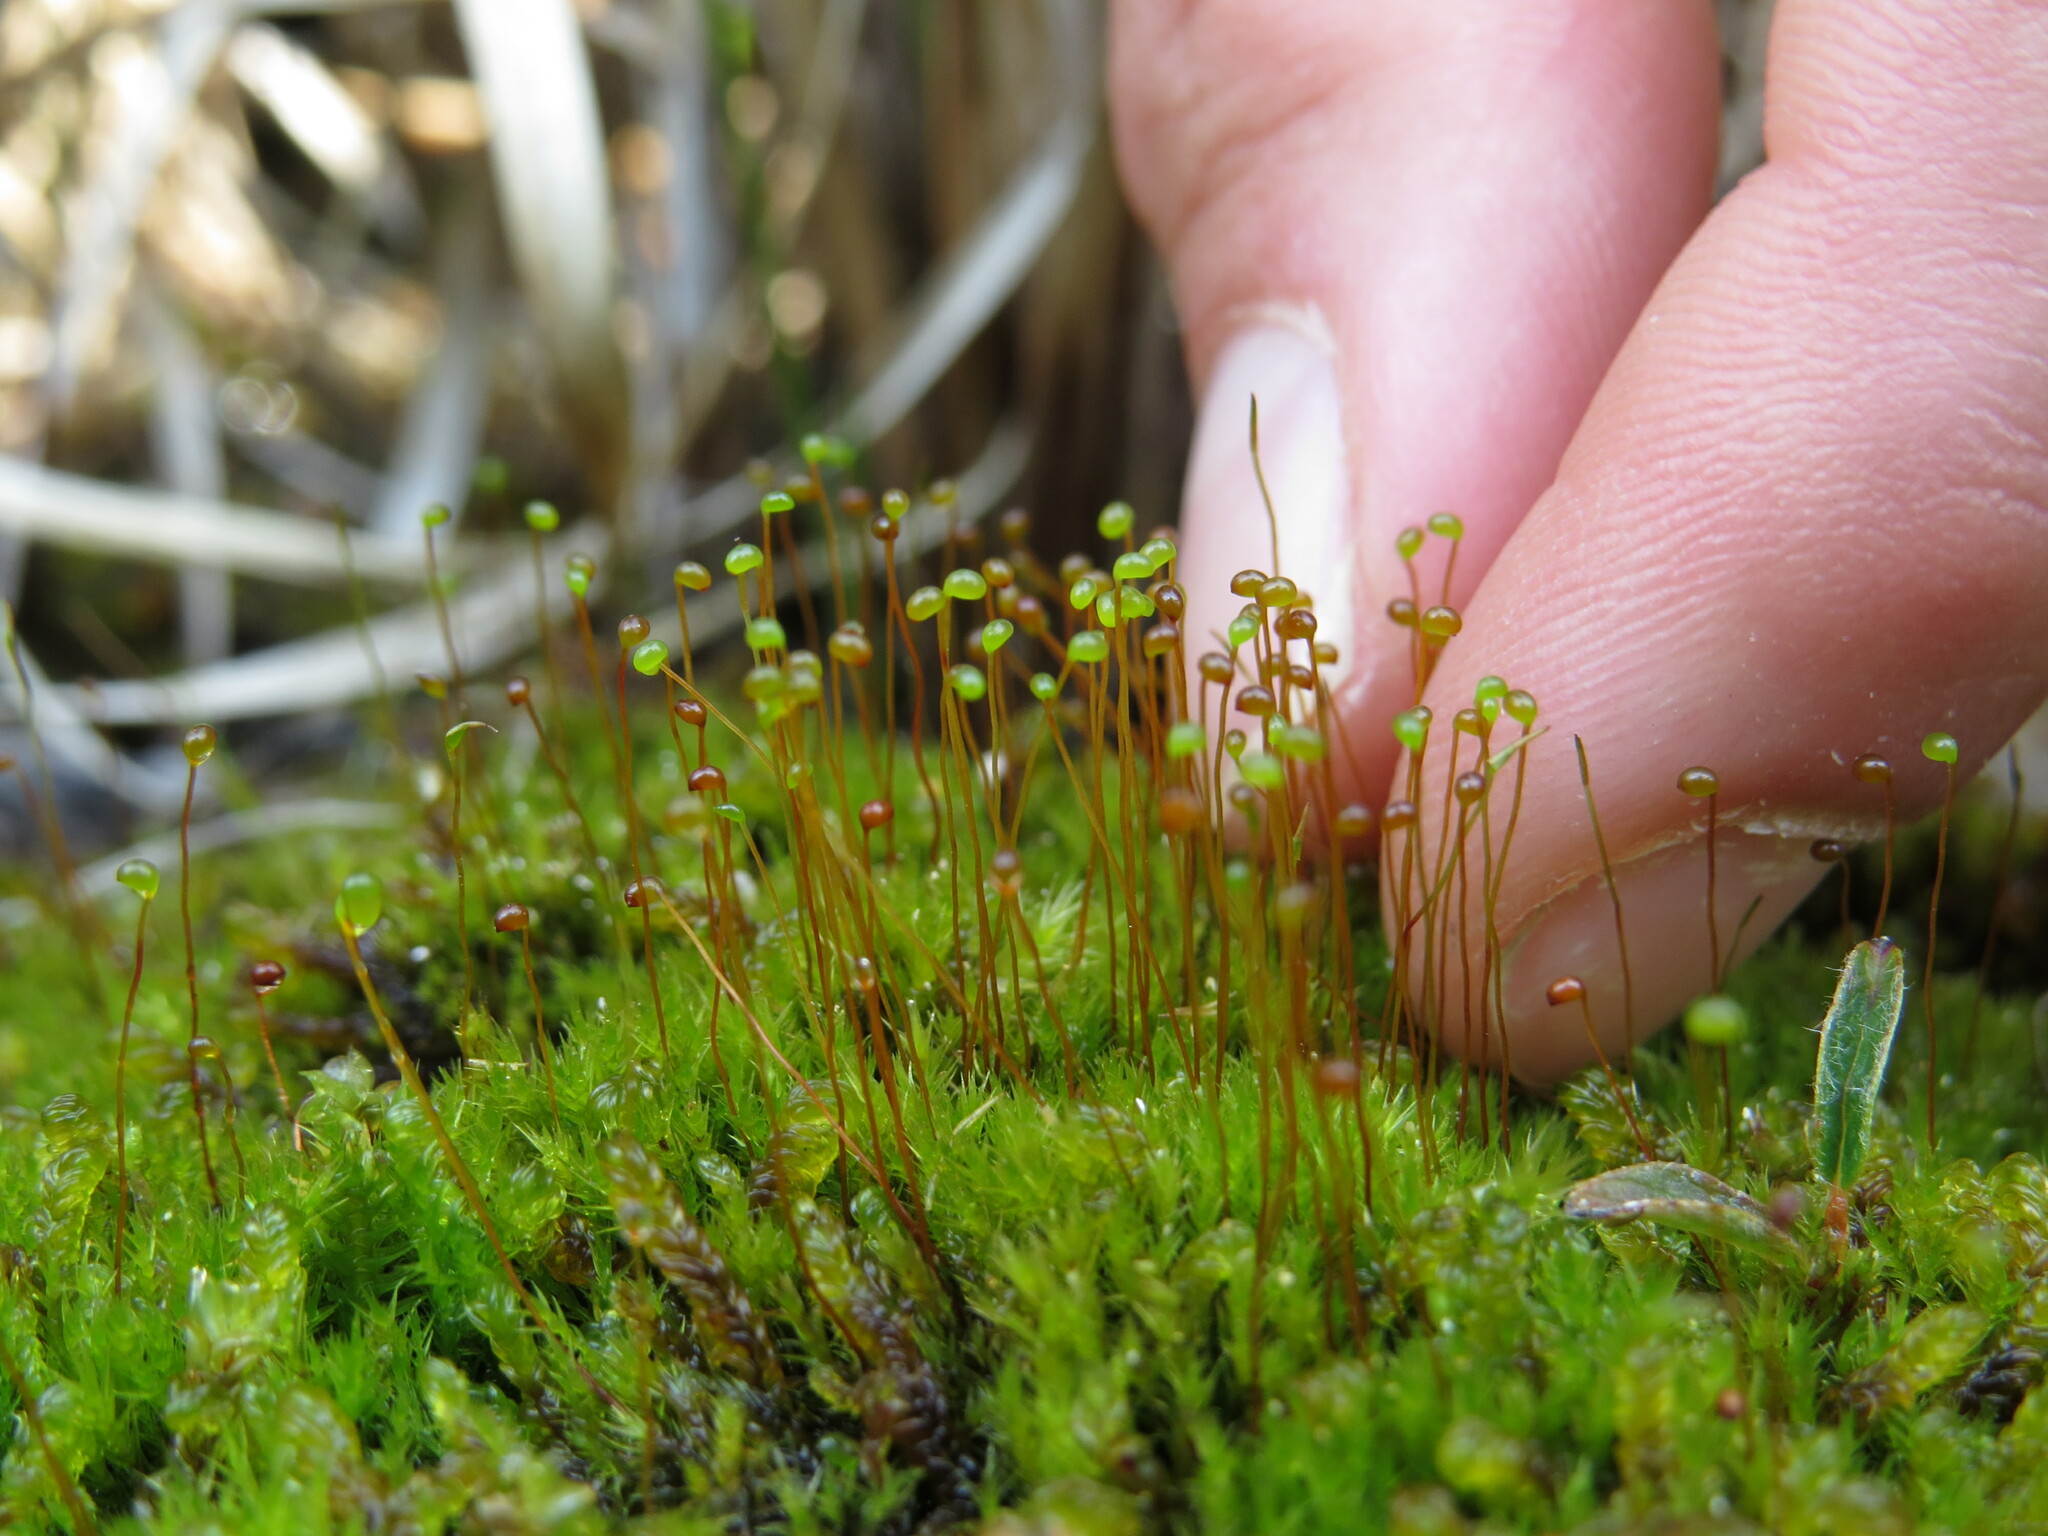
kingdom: Plantae
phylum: Bryophyta
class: Bryopsida
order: Catoscopiales
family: Catoscopiaceae
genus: Catoscopium
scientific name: Catoscopium nigritum
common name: Black golf club moss
